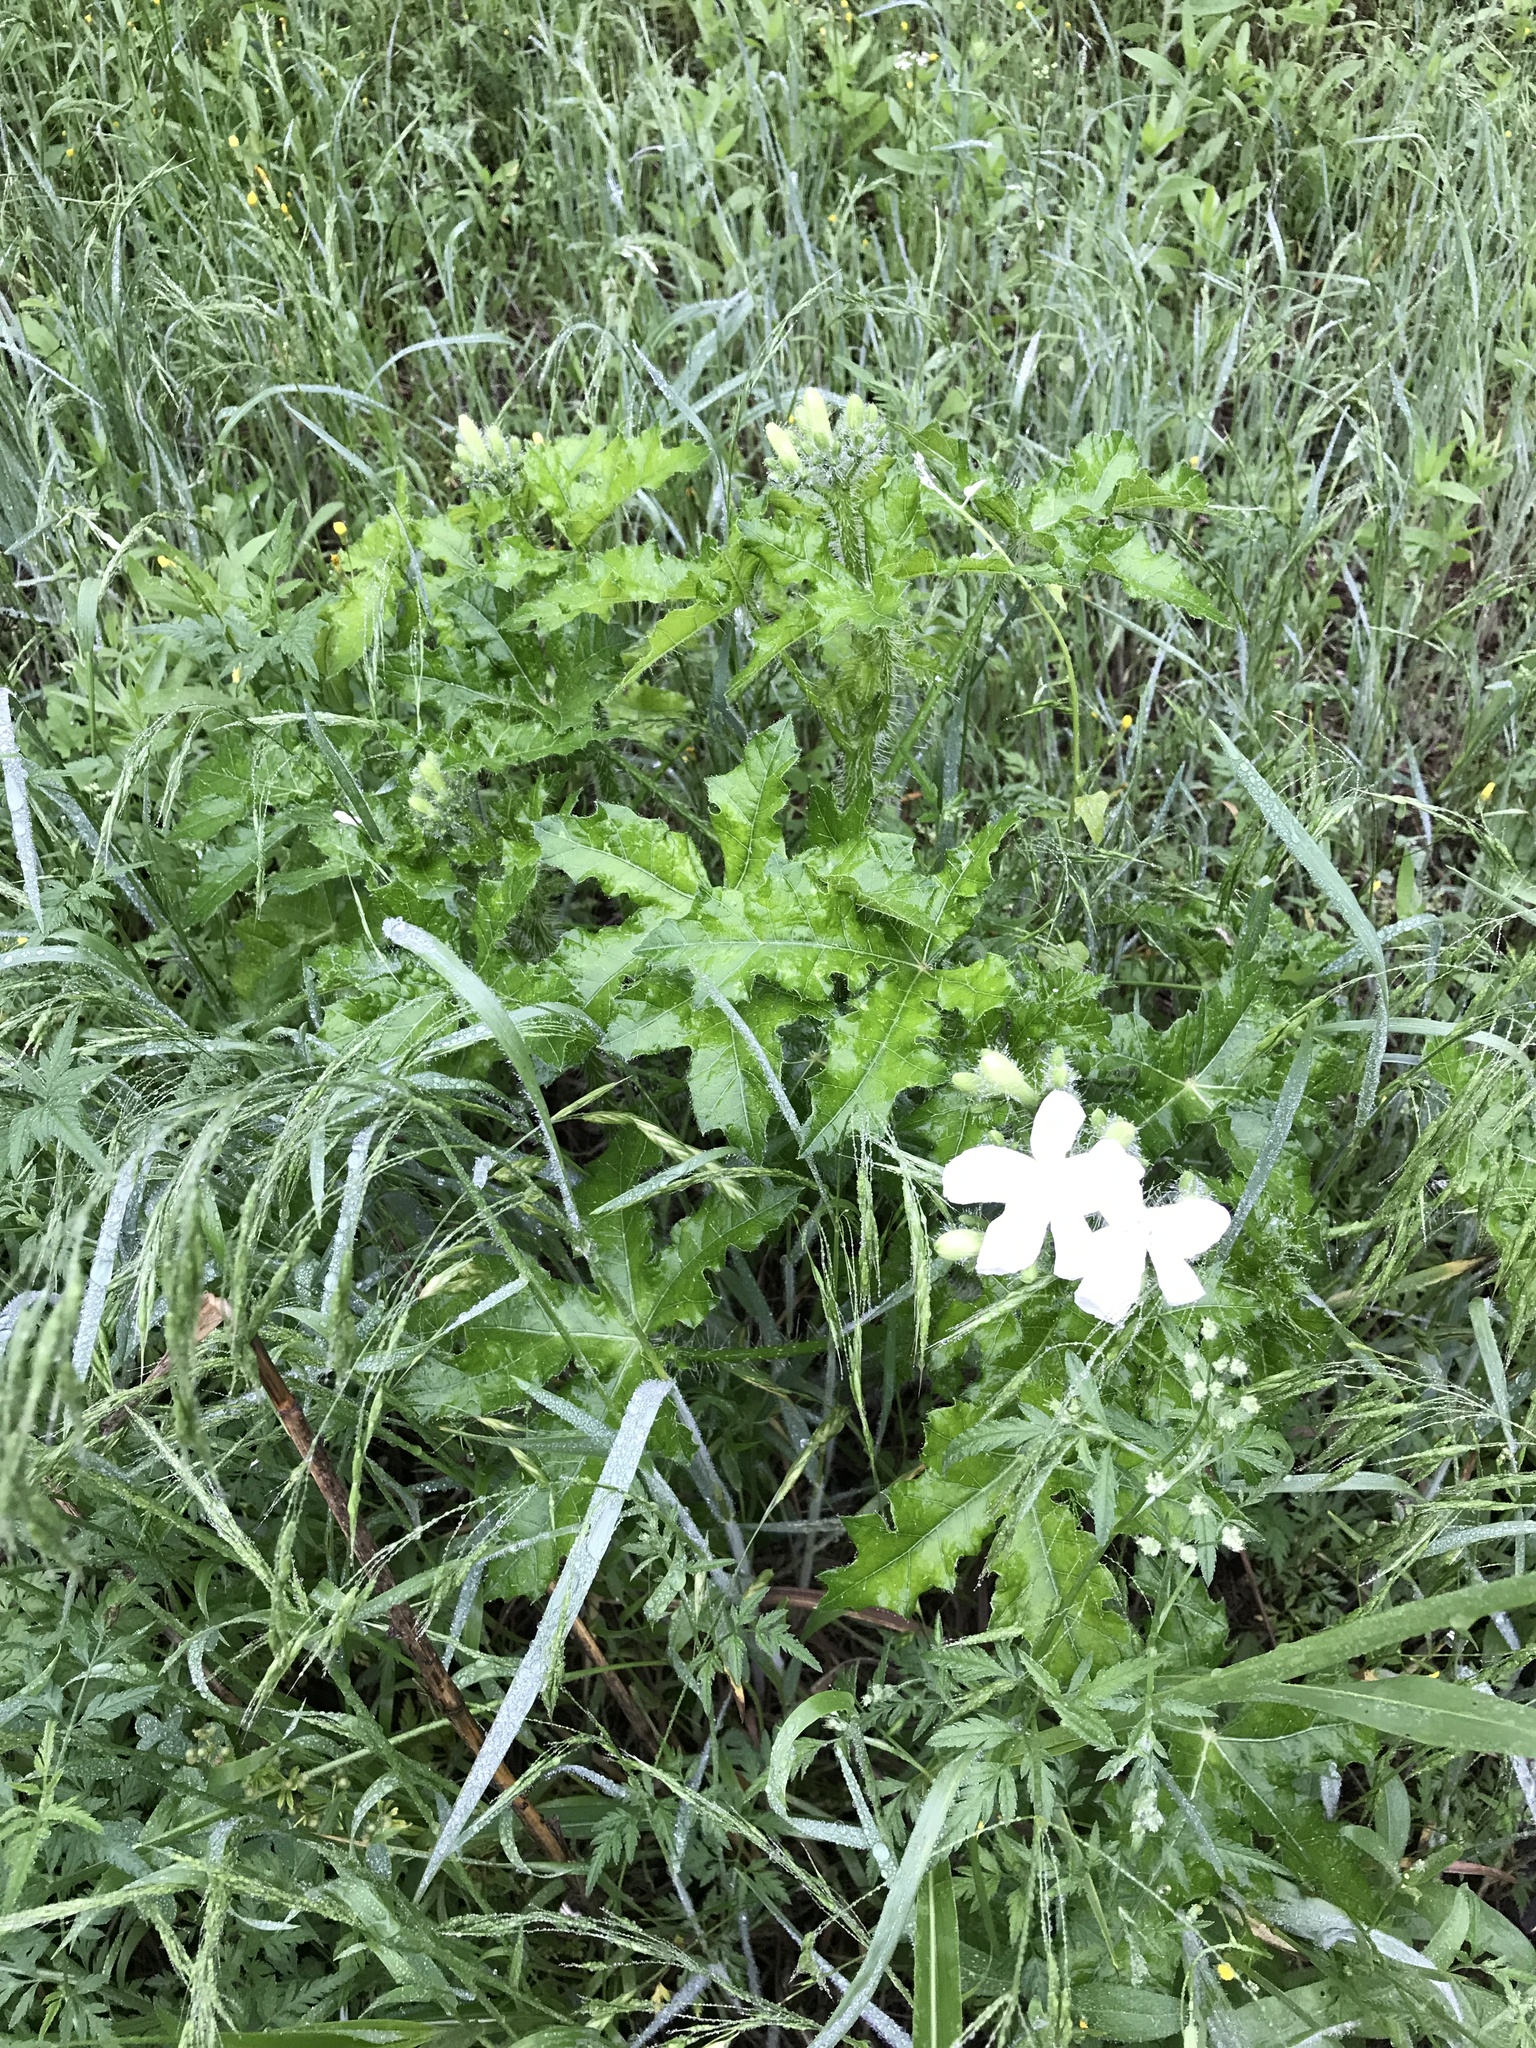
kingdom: Plantae
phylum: Tracheophyta
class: Magnoliopsida
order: Malpighiales
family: Euphorbiaceae
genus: Cnidoscolus
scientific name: Cnidoscolus texanus
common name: Texas bull-nettle
